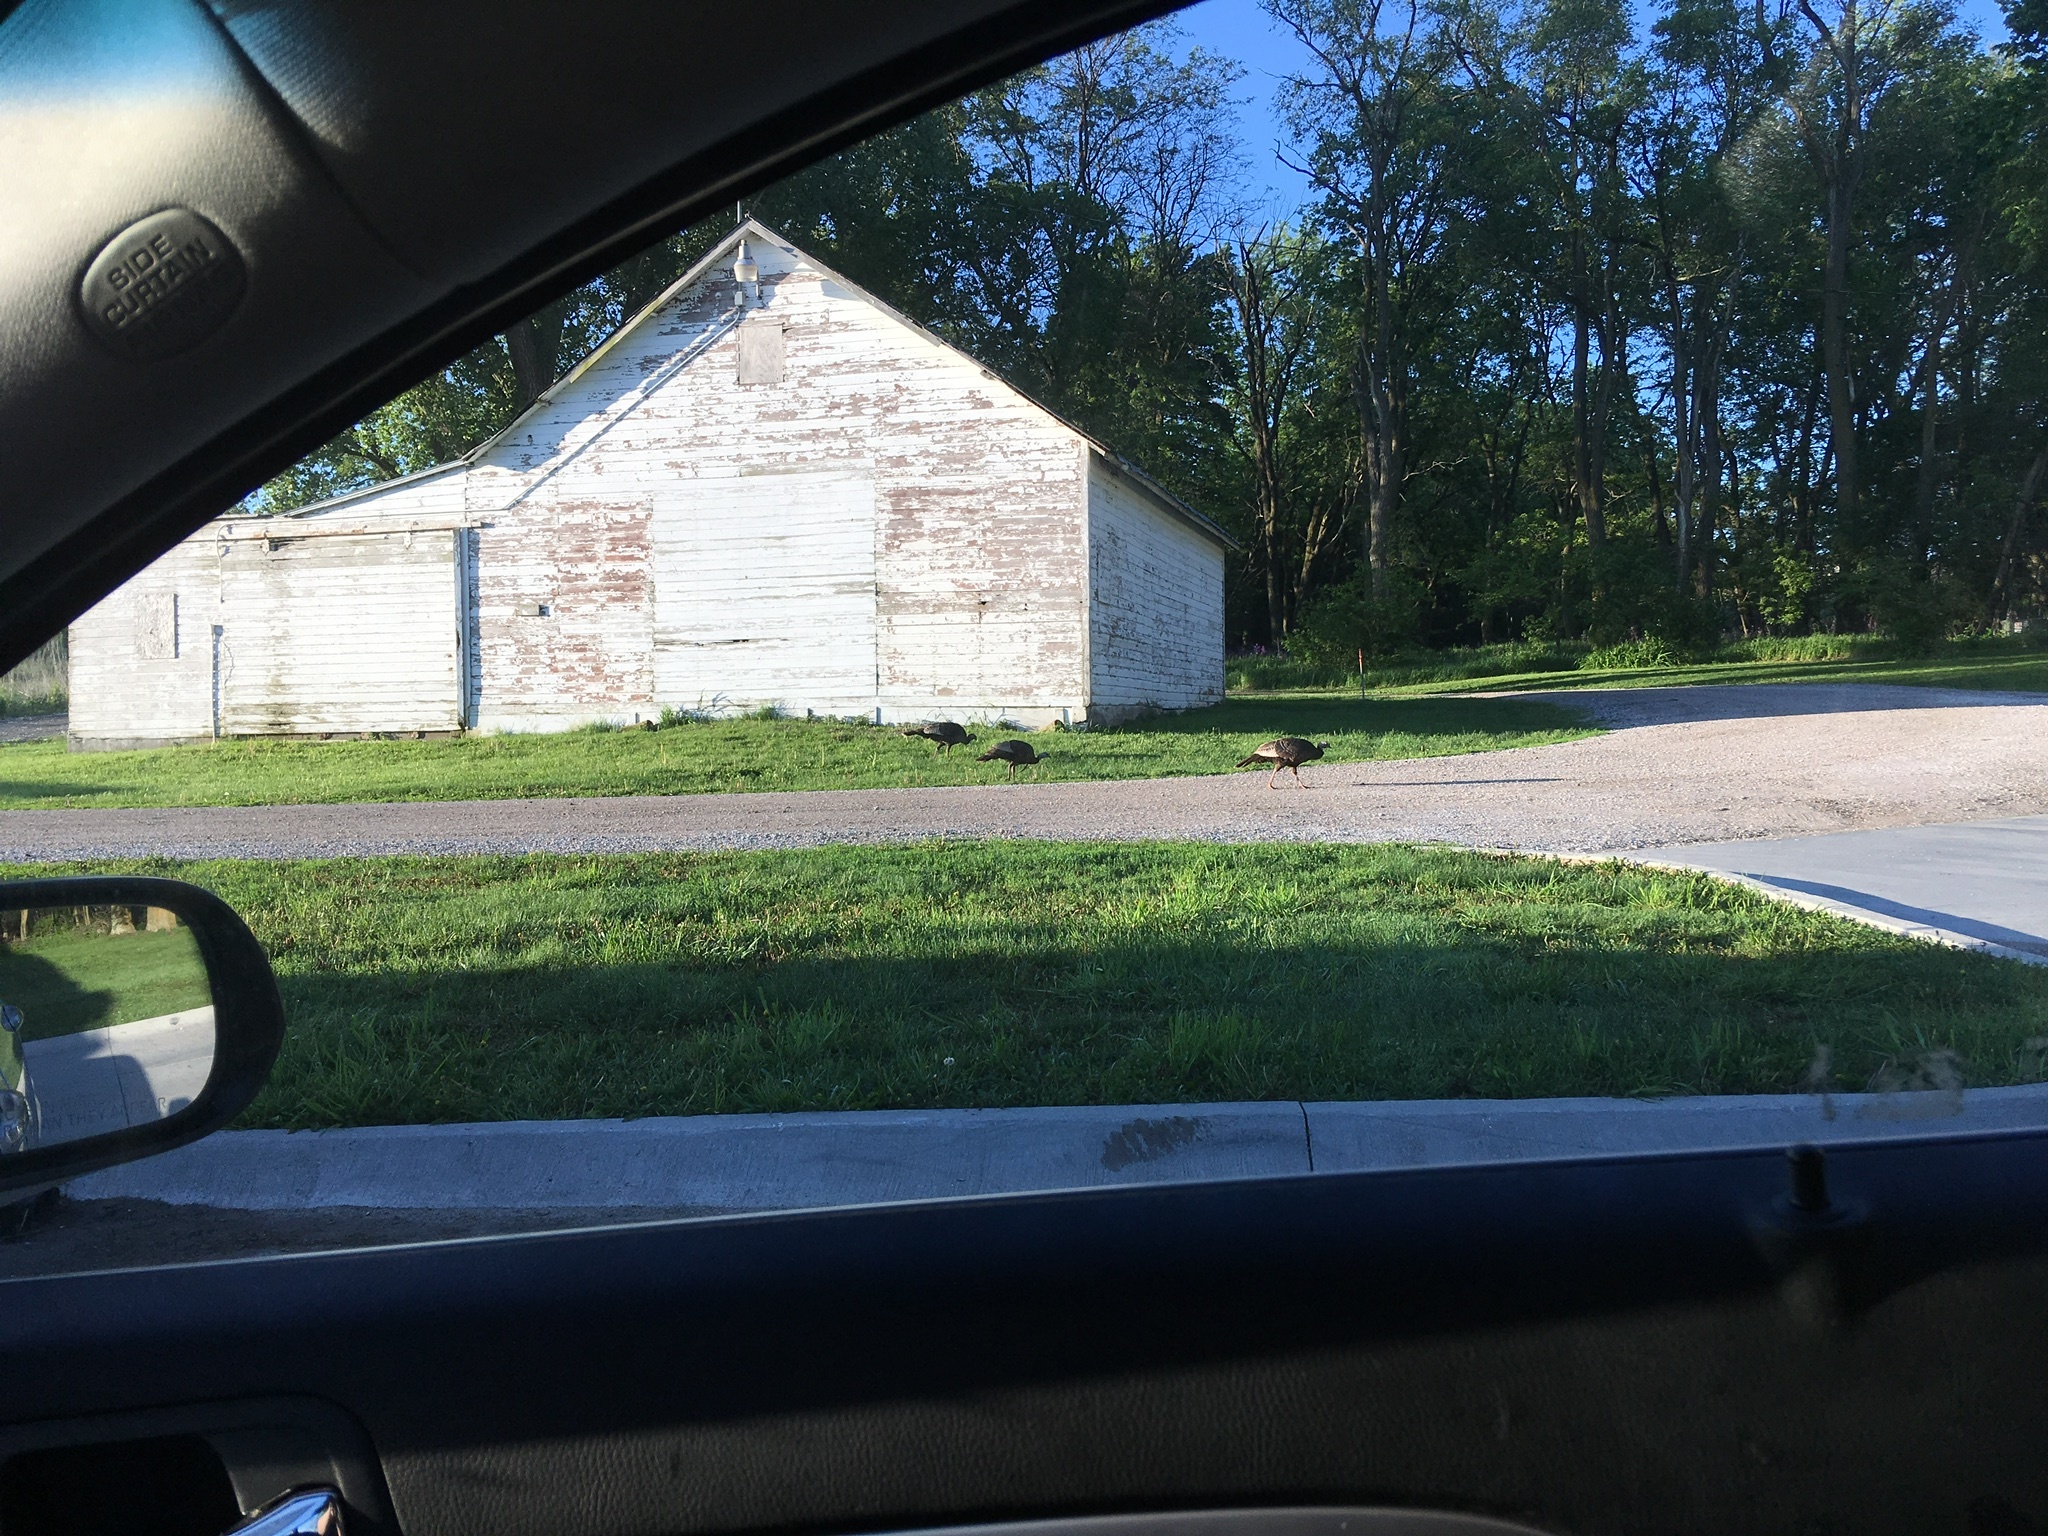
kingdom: Animalia
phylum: Chordata
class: Aves
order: Galliformes
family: Phasianidae
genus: Meleagris
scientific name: Meleagris gallopavo
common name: Wild turkey
